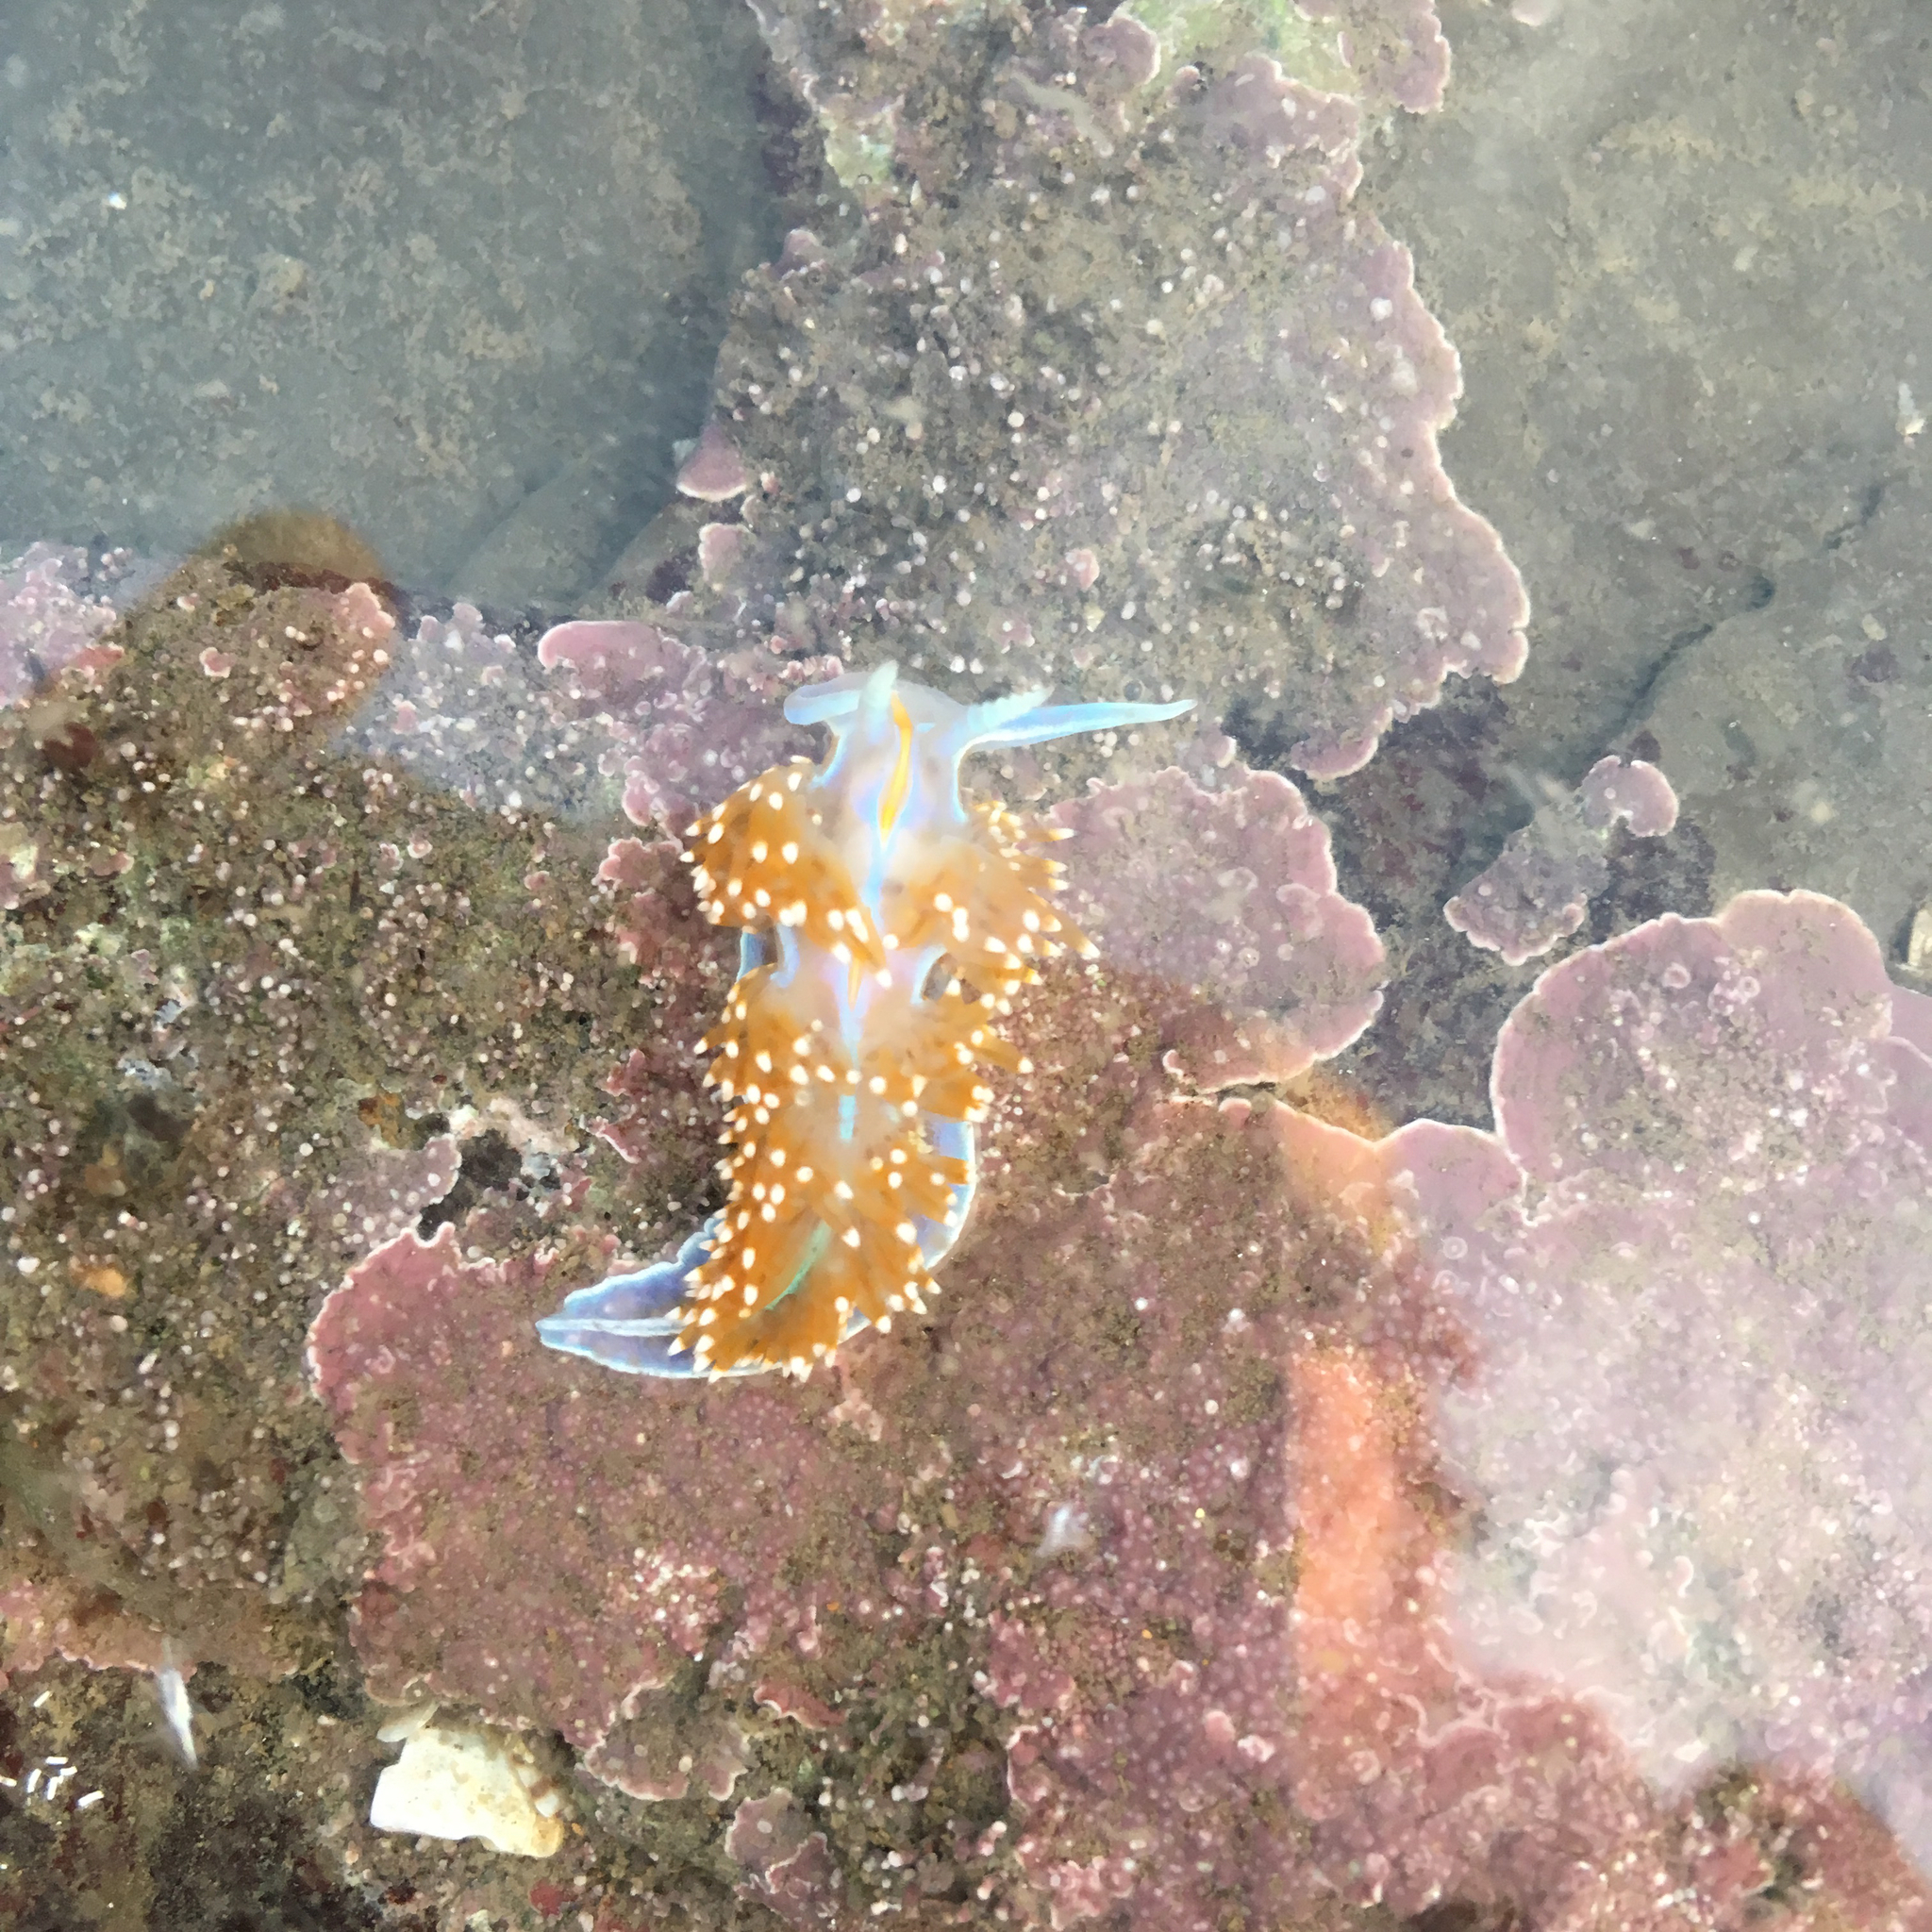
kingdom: Animalia
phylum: Mollusca
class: Gastropoda
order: Nudibranchia
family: Myrrhinidae
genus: Hermissenda
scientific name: Hermissenda opalescens
